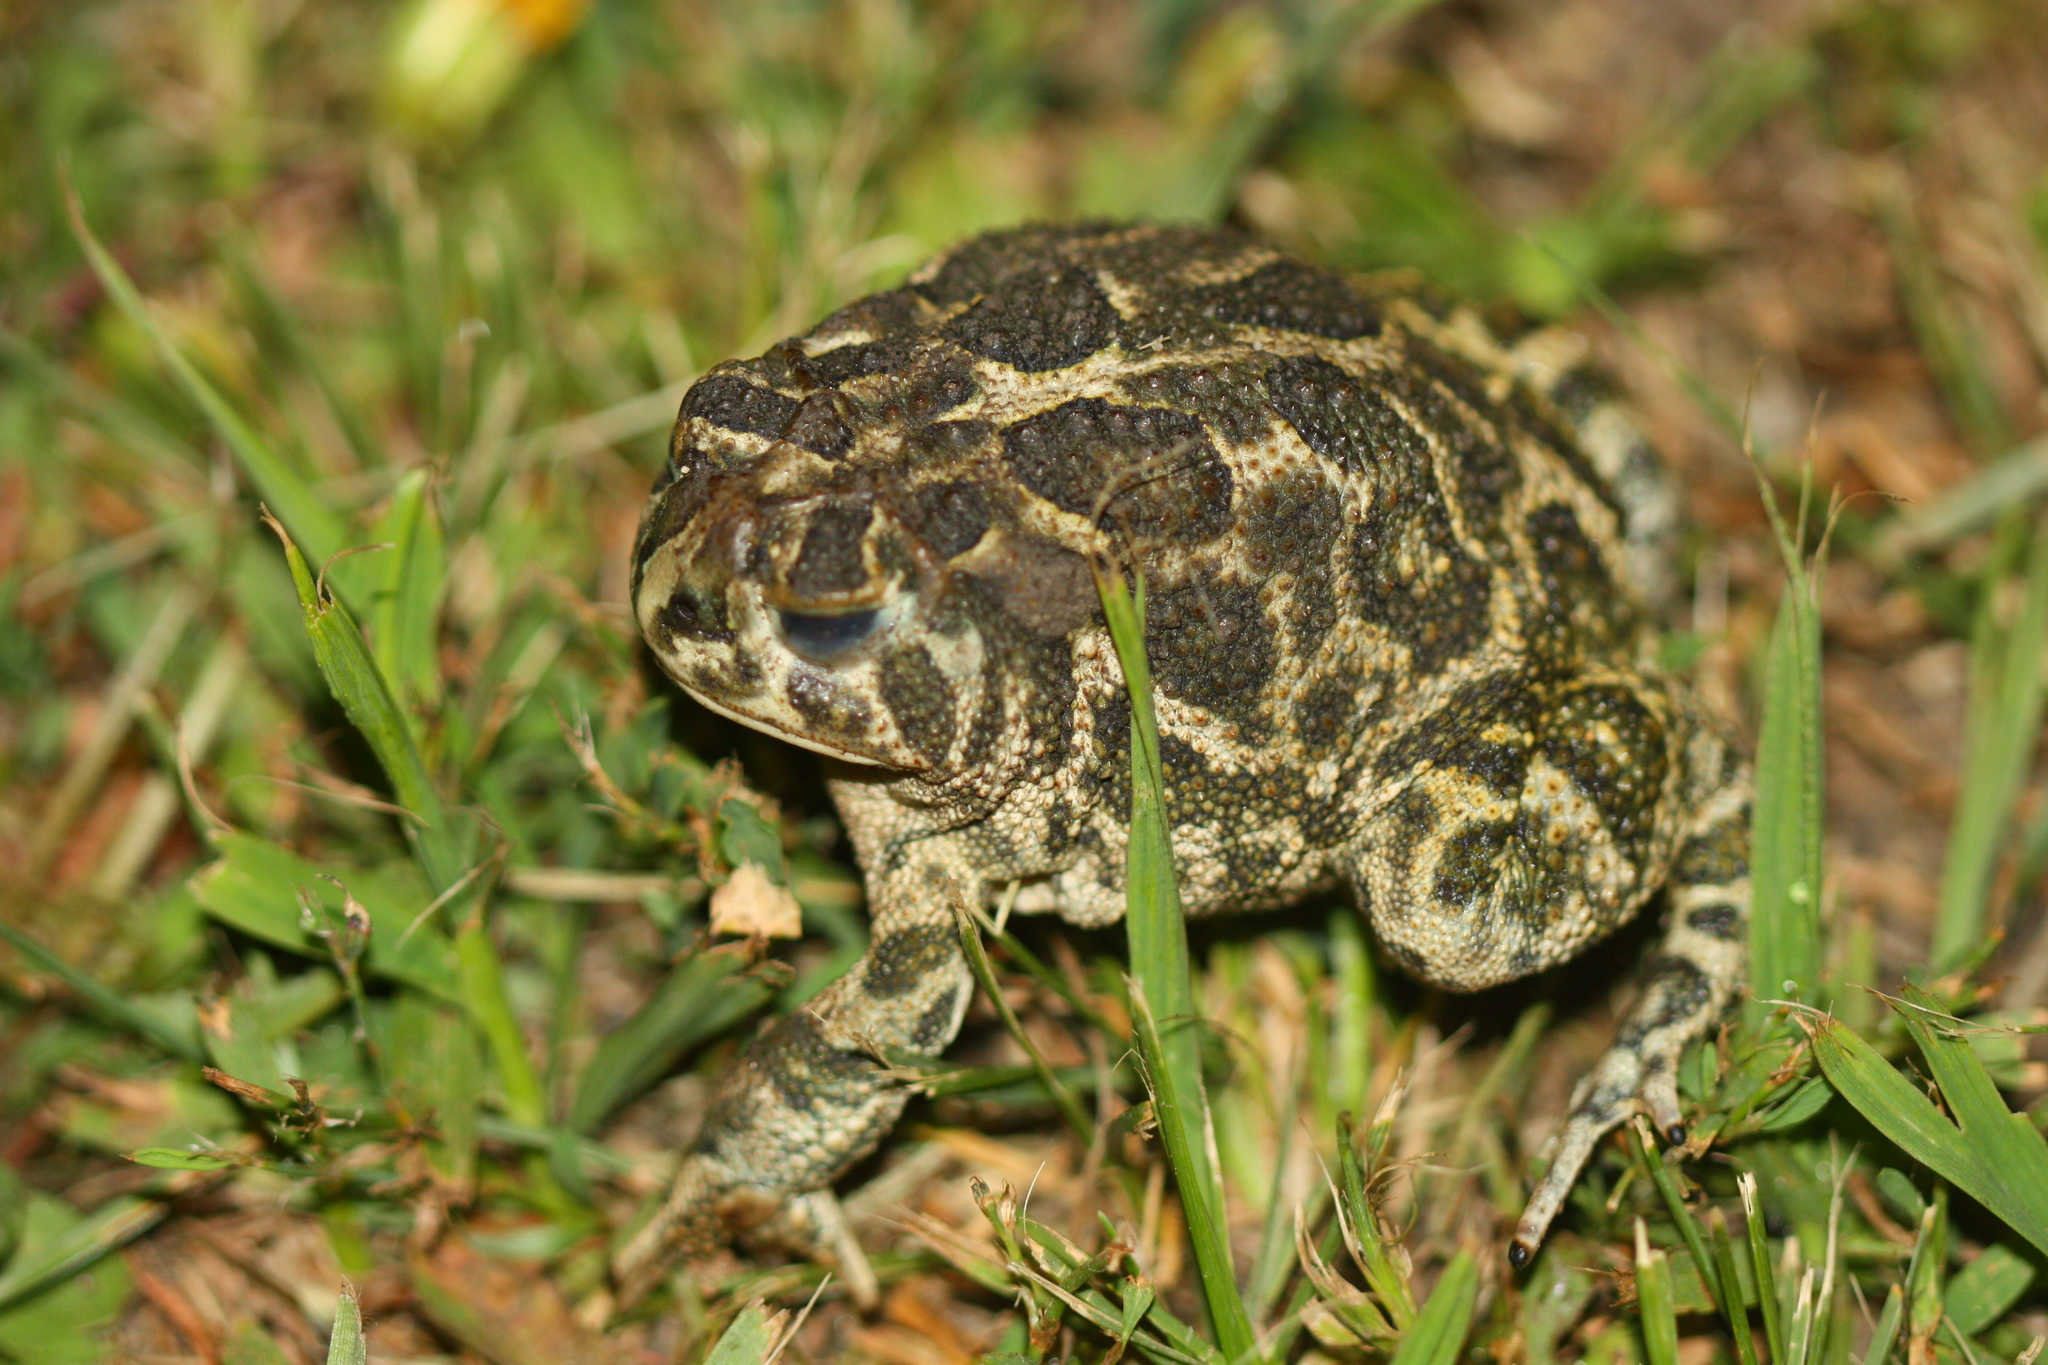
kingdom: Animalia
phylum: Chordata
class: Amphibia
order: Anura
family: Bufonidae
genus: Anaxyrus
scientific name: Anaxyrus cognatus
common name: Great plains toad
